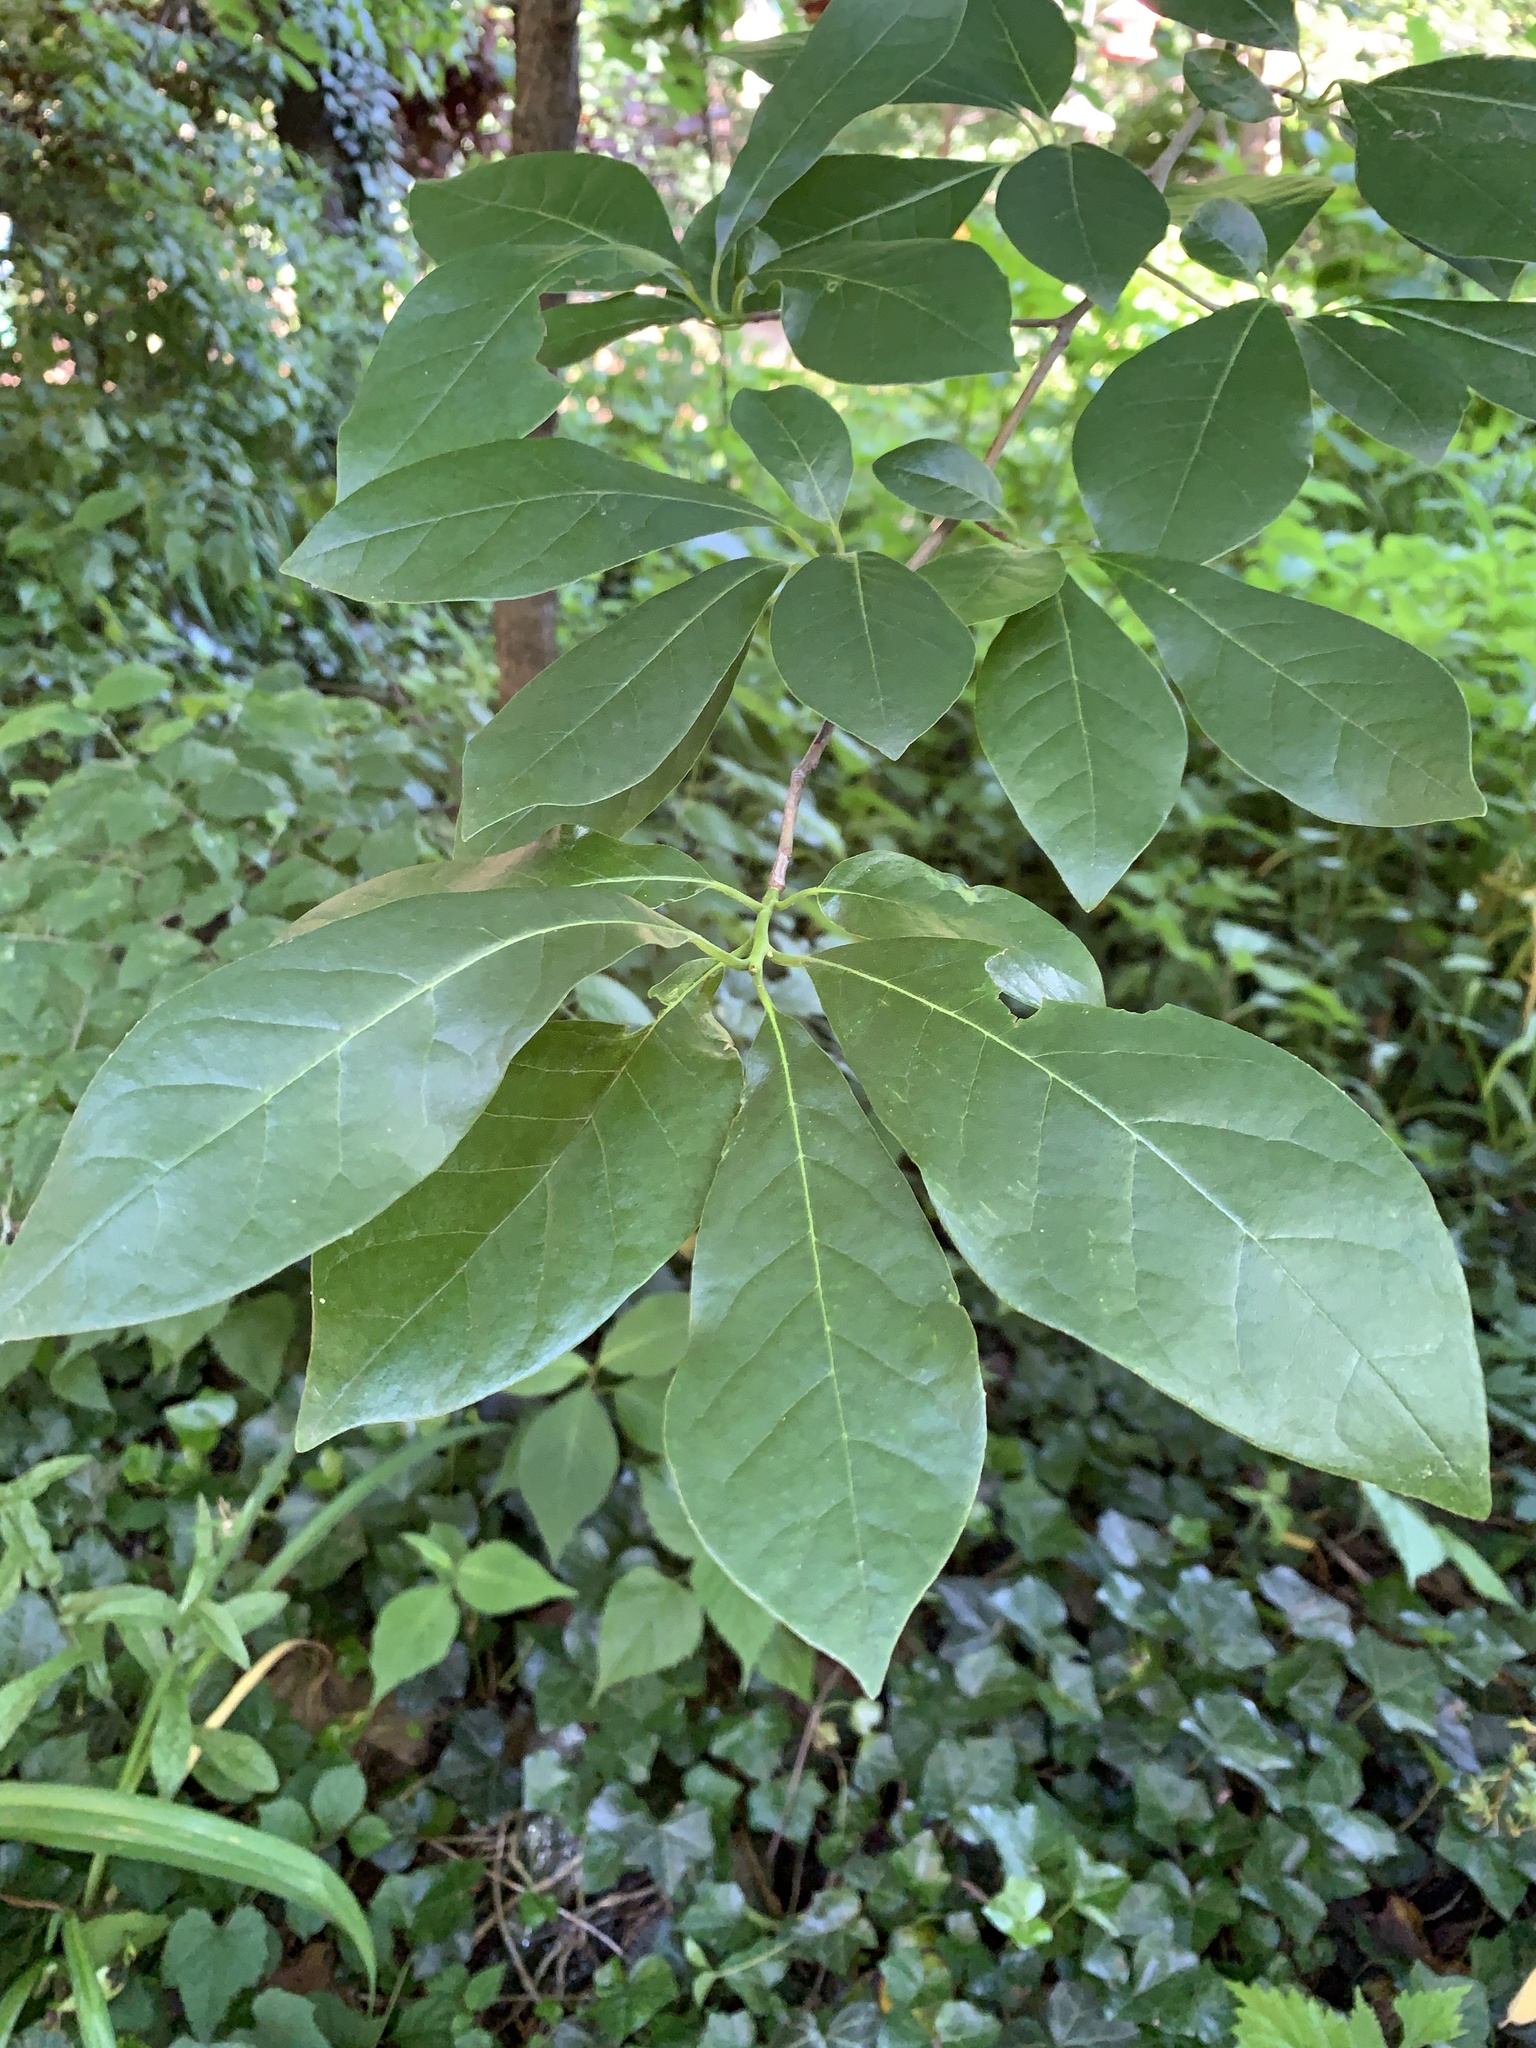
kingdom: Plantae
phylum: Tracheophyta
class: Magnoliopsida
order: Cornales
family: Nyssaceae
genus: Nyssa
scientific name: Nyssa sylvatica
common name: Black tupelo
